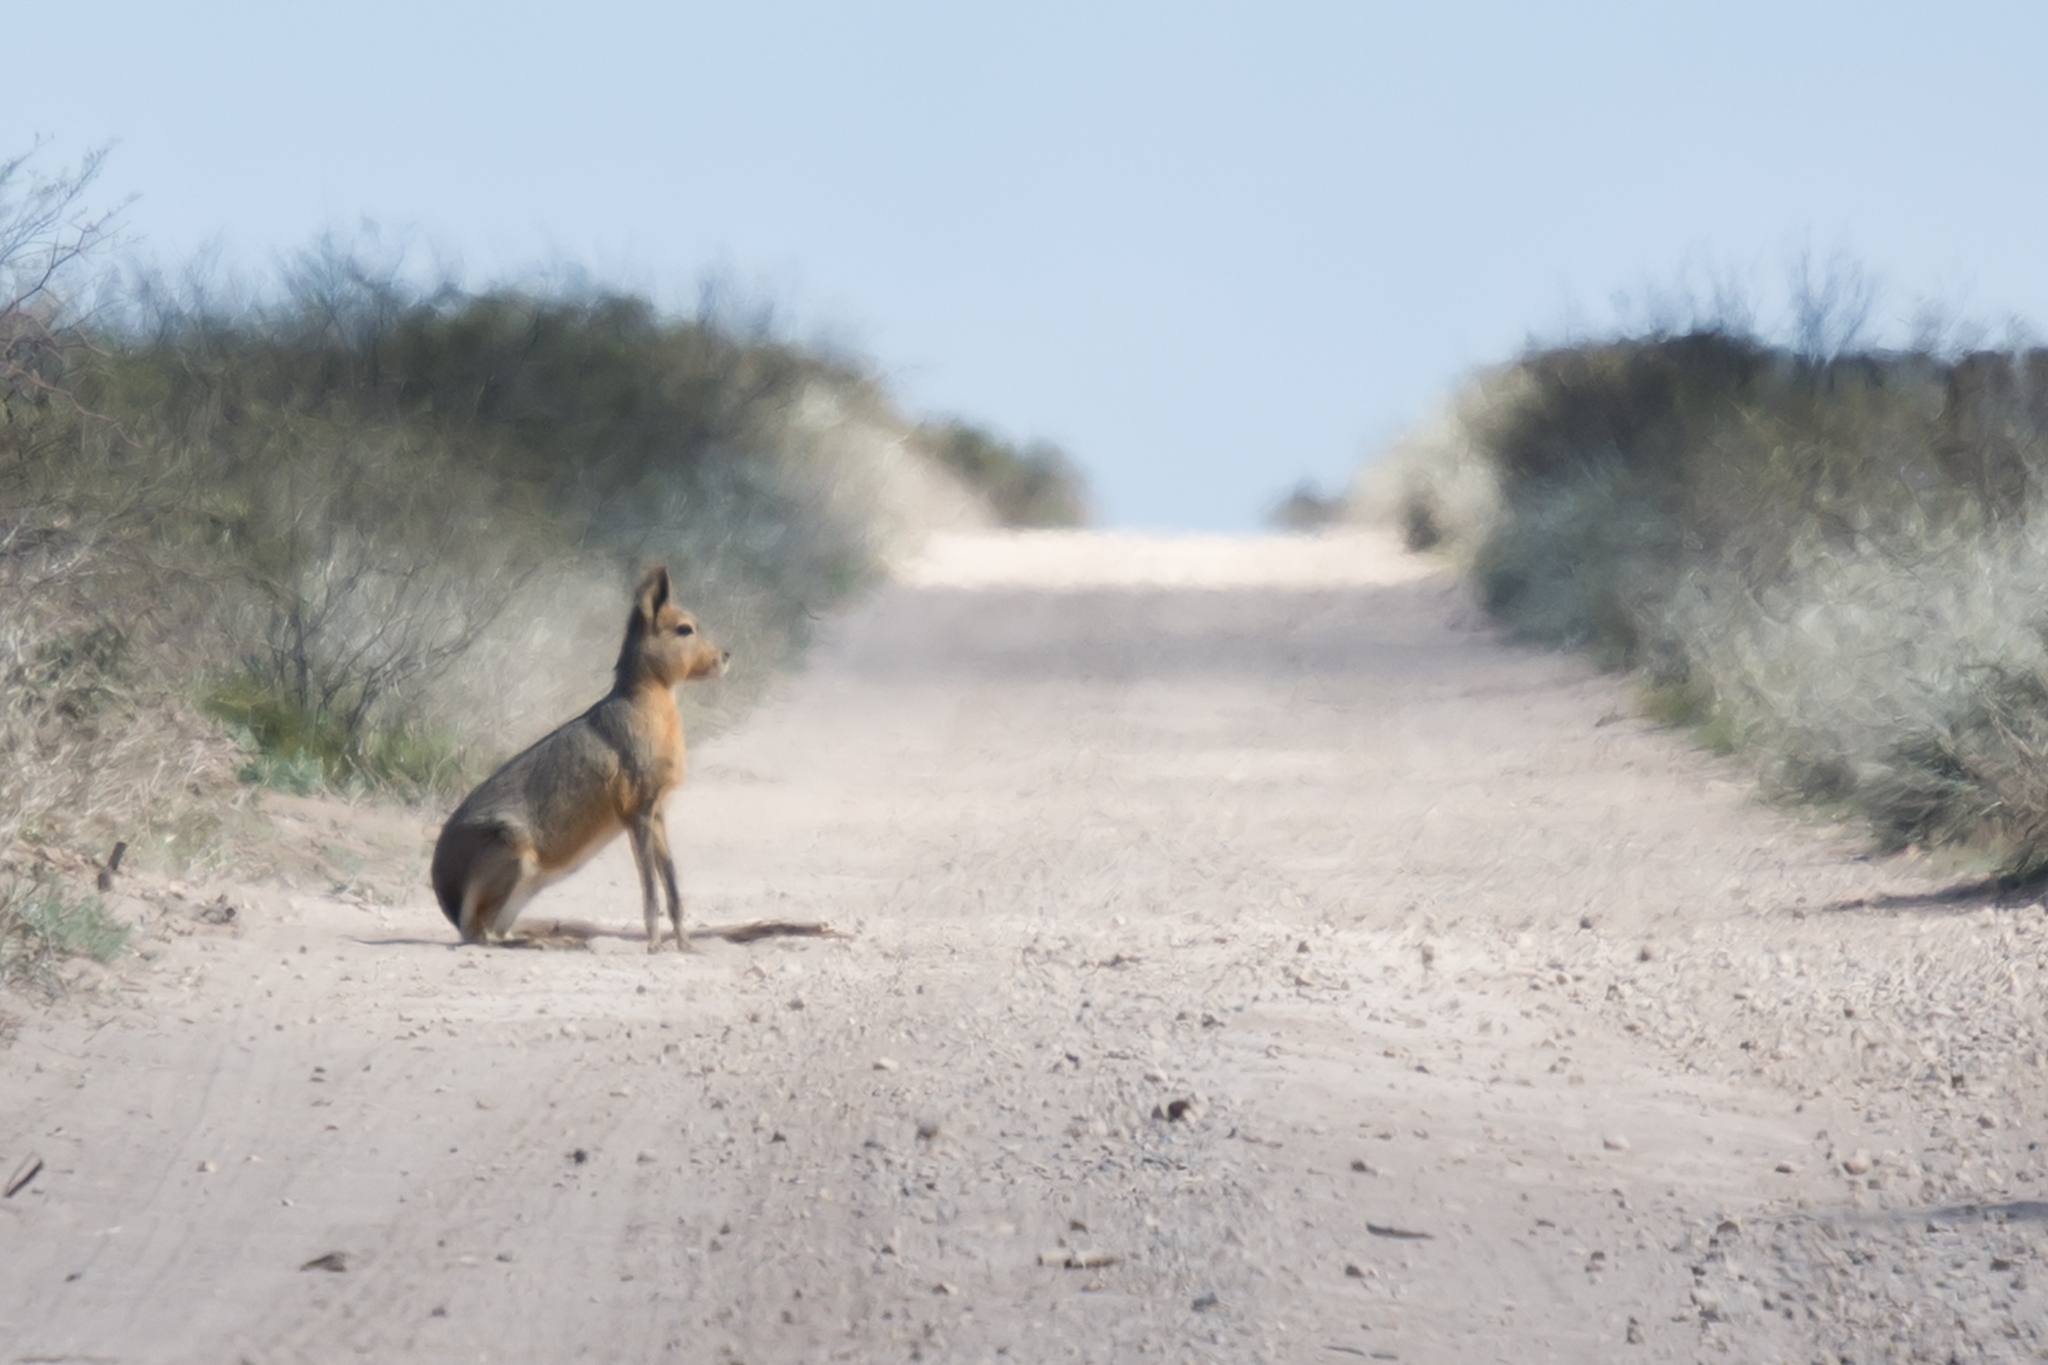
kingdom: Animalia
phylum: Chordata
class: Mammalia
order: Rodentia
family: Caviidae
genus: Dolichotis
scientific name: Dolichotis patagonum
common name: Patagonian mara
